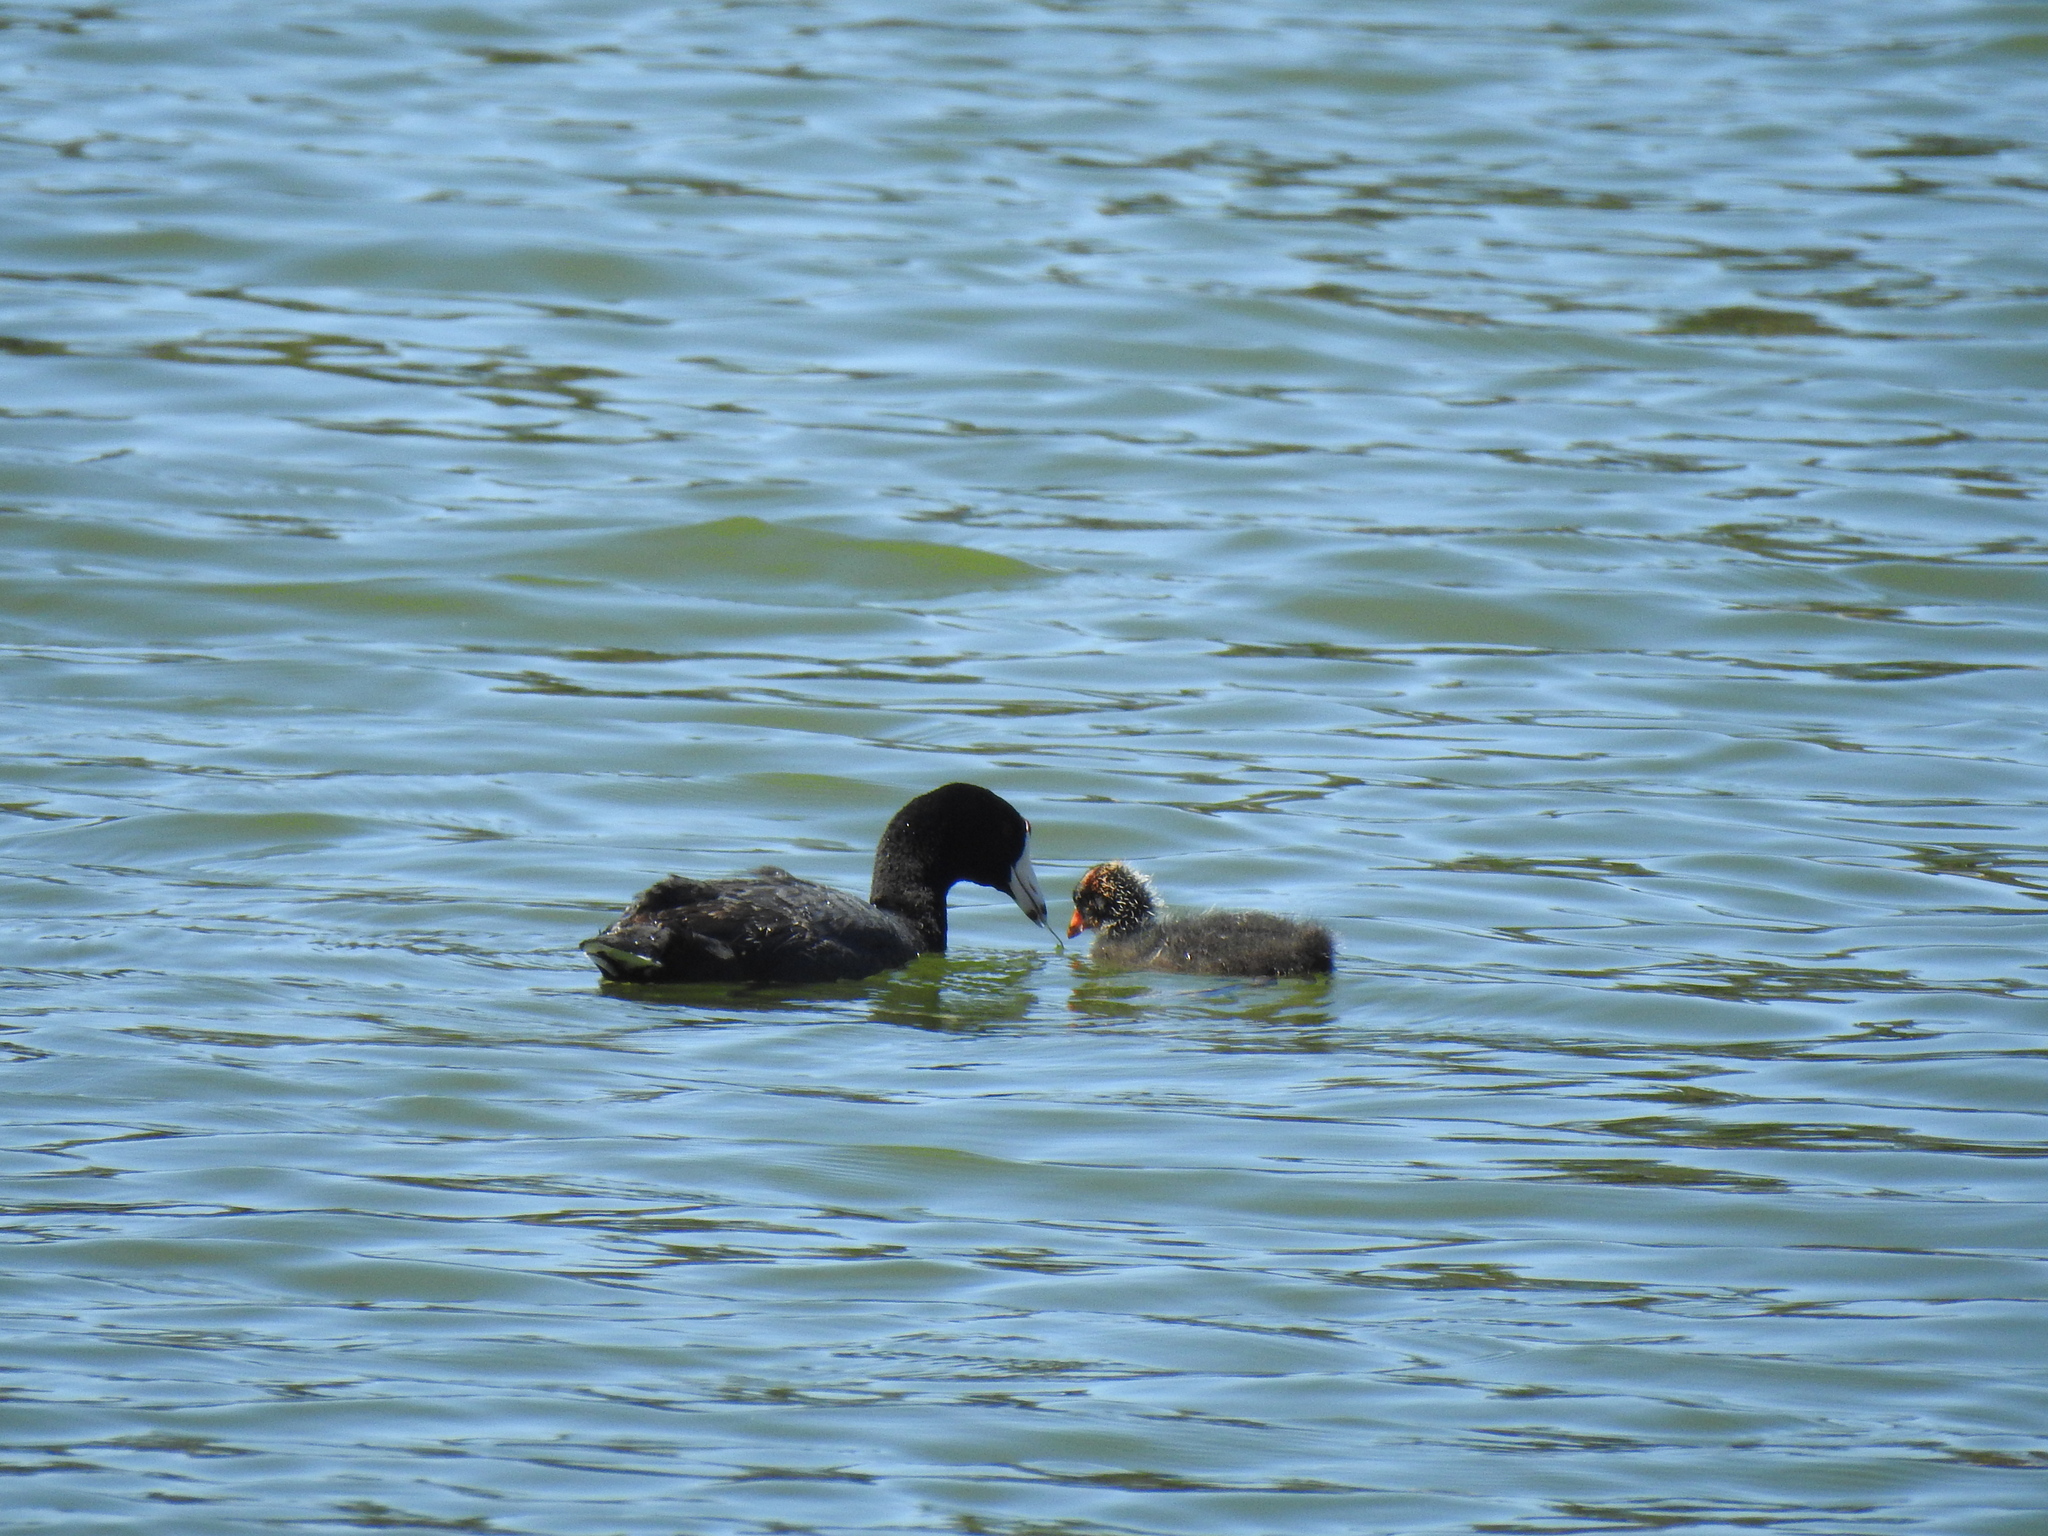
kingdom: Animalia
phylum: Chordata
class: Aves
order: Gruiformes
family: Rallidae
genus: Fulica
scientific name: Fulica americana
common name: American coot
